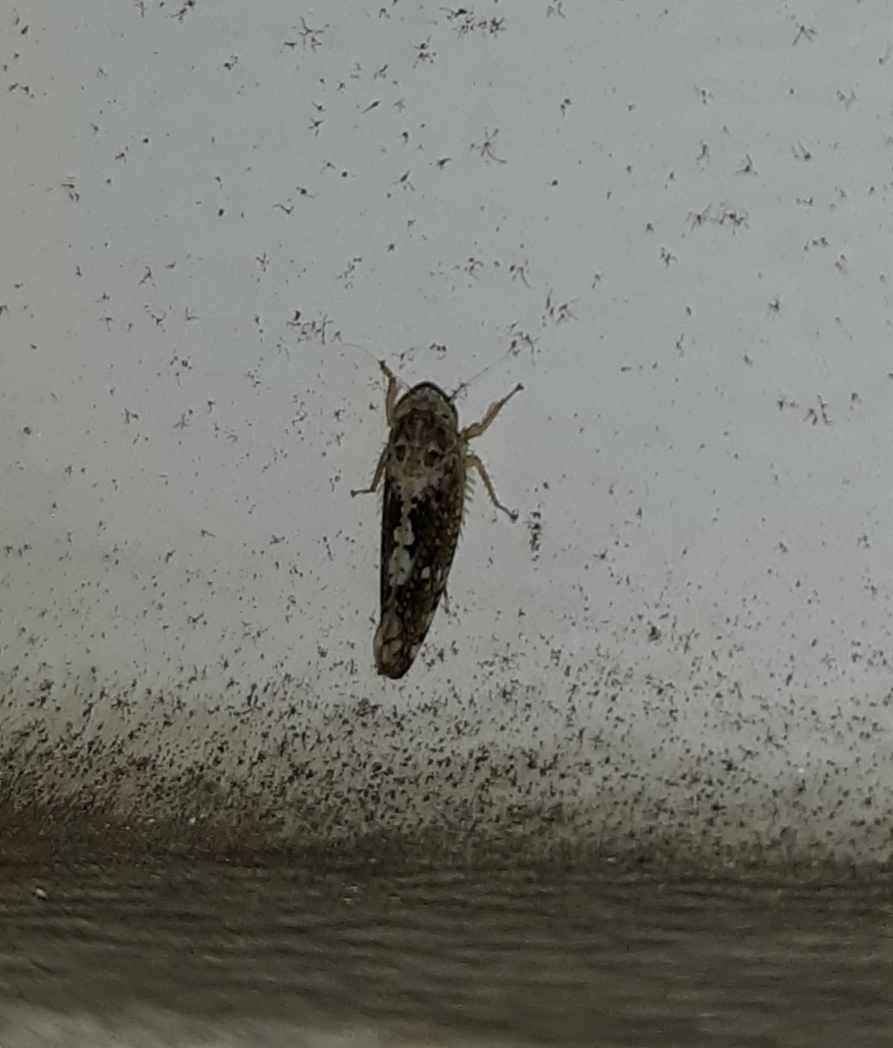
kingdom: Animalia
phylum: Arthropoda
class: Insecta
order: Hemiptera
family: Cicadellidae
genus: Prescottia
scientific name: Prescottia lobata
